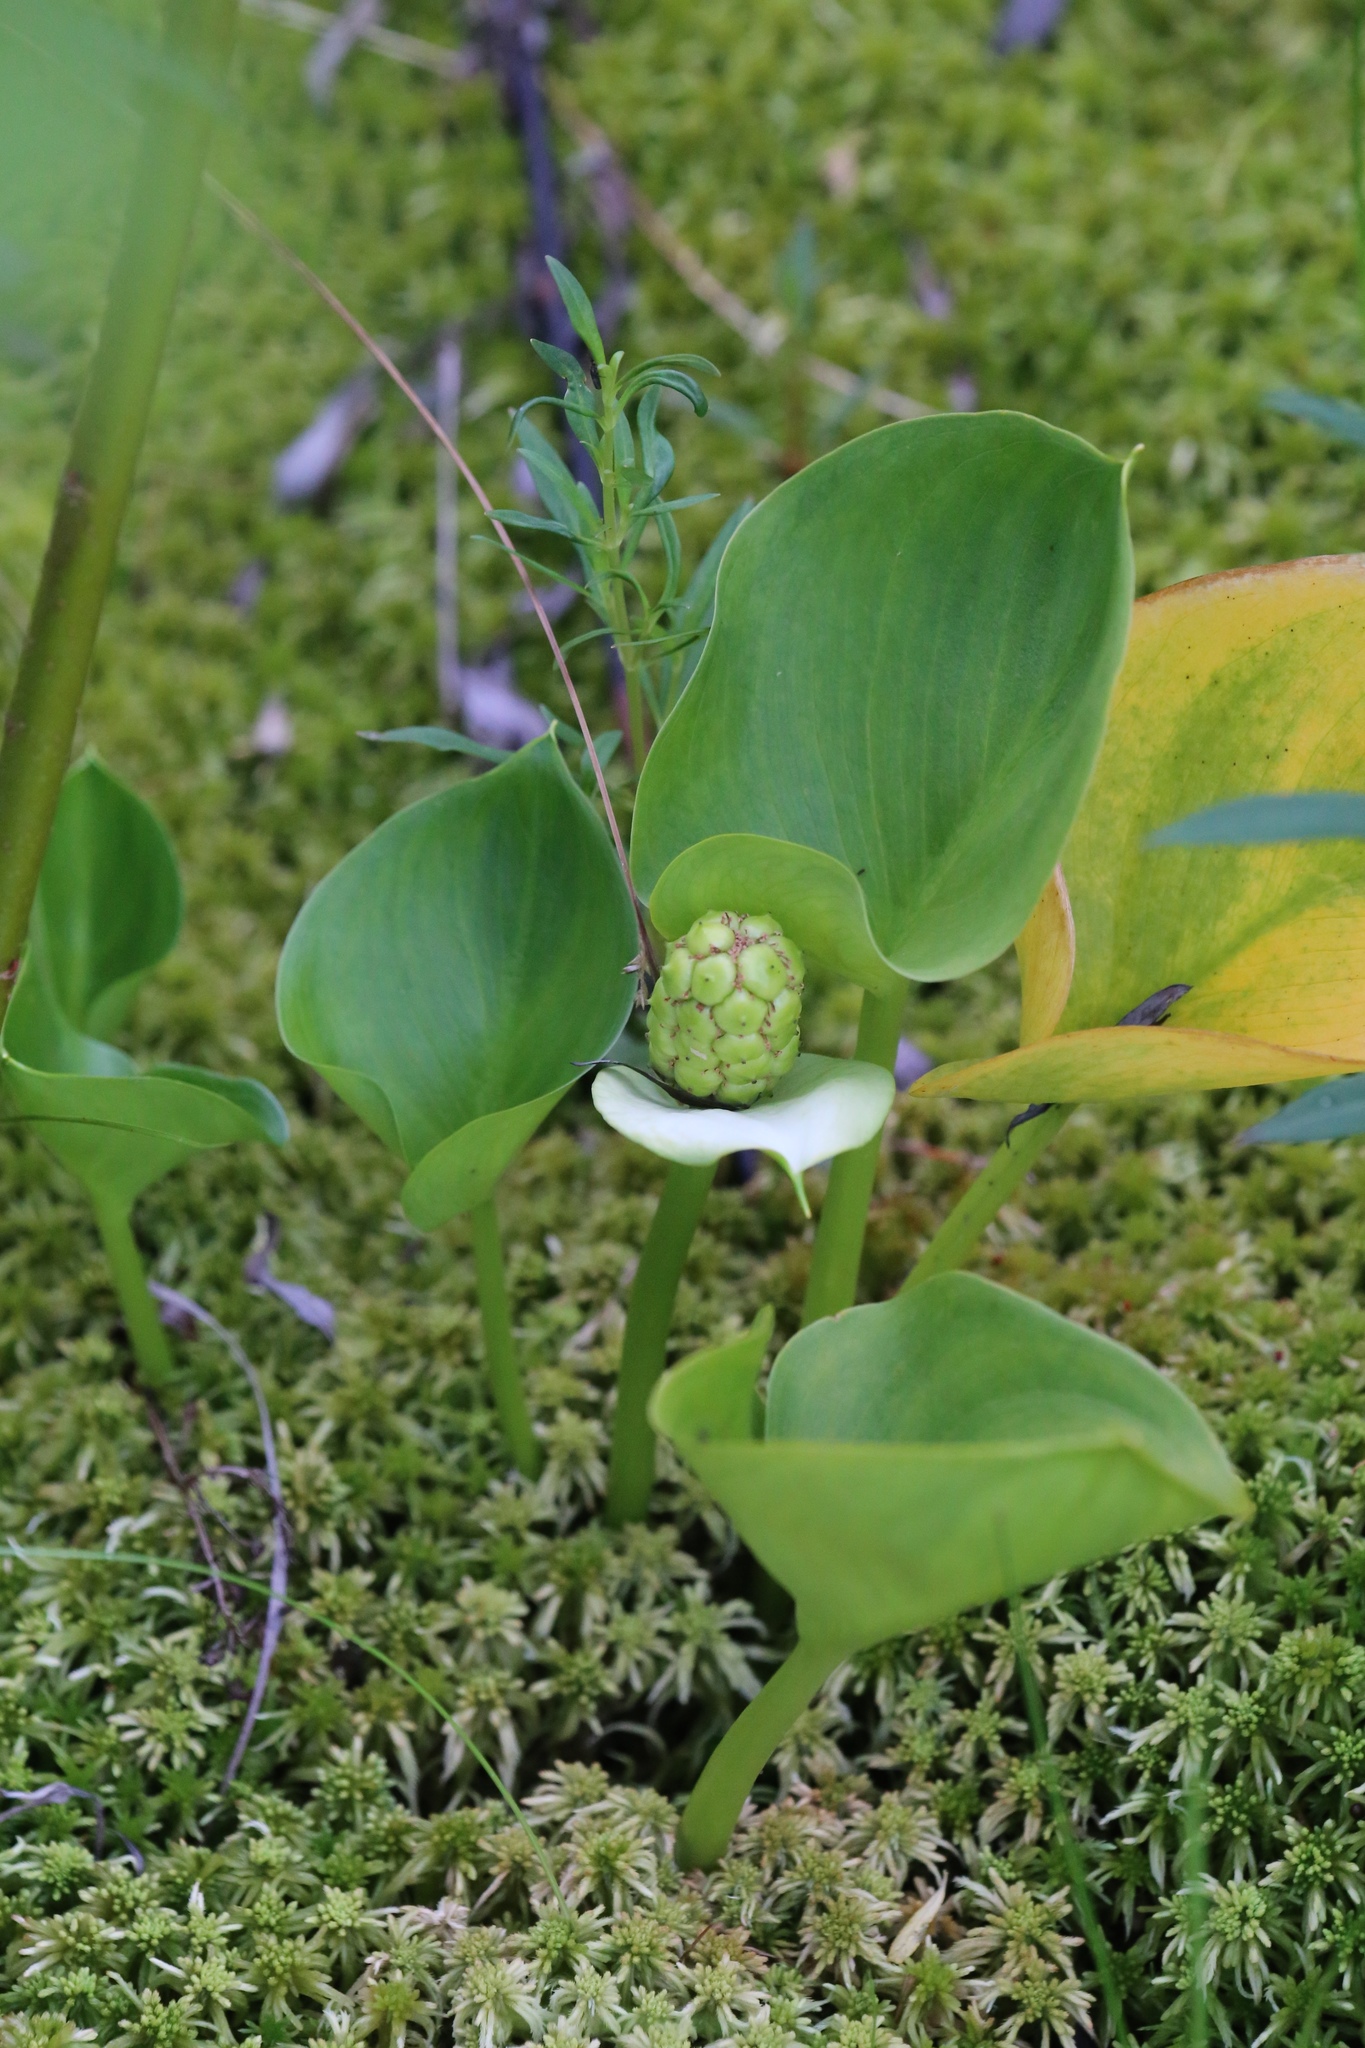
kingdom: Plantae
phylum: Tracheophyta
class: Liliopsida
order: Alismatales
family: Araceae
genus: Calla
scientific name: Calla palustris
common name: Bog arum
